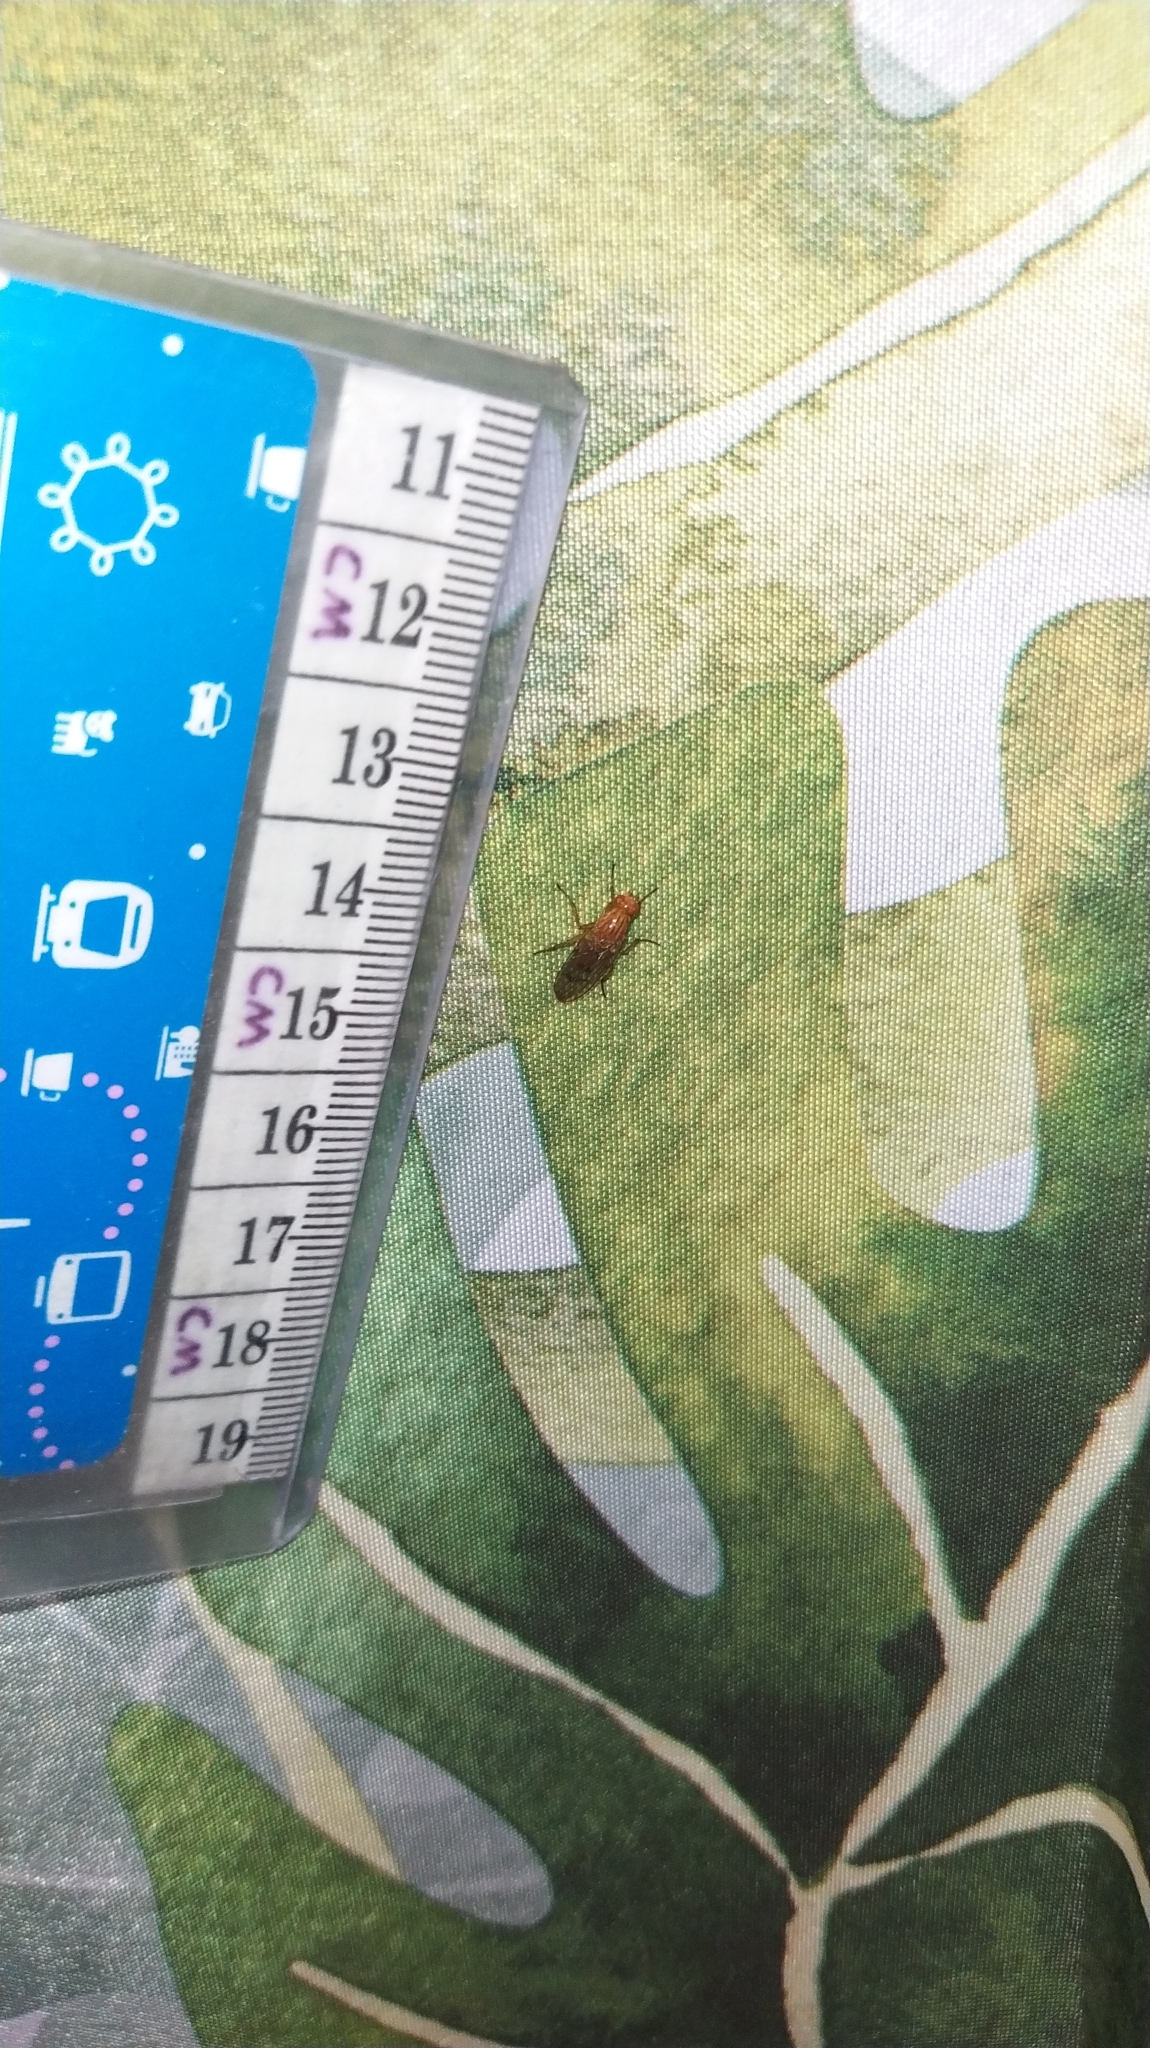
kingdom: Animalia
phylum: Arthropoda
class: Insecta
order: Diptera
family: Dryomyzidae
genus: Dryomyza
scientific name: Dryomyza anilis
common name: Marsh fly
